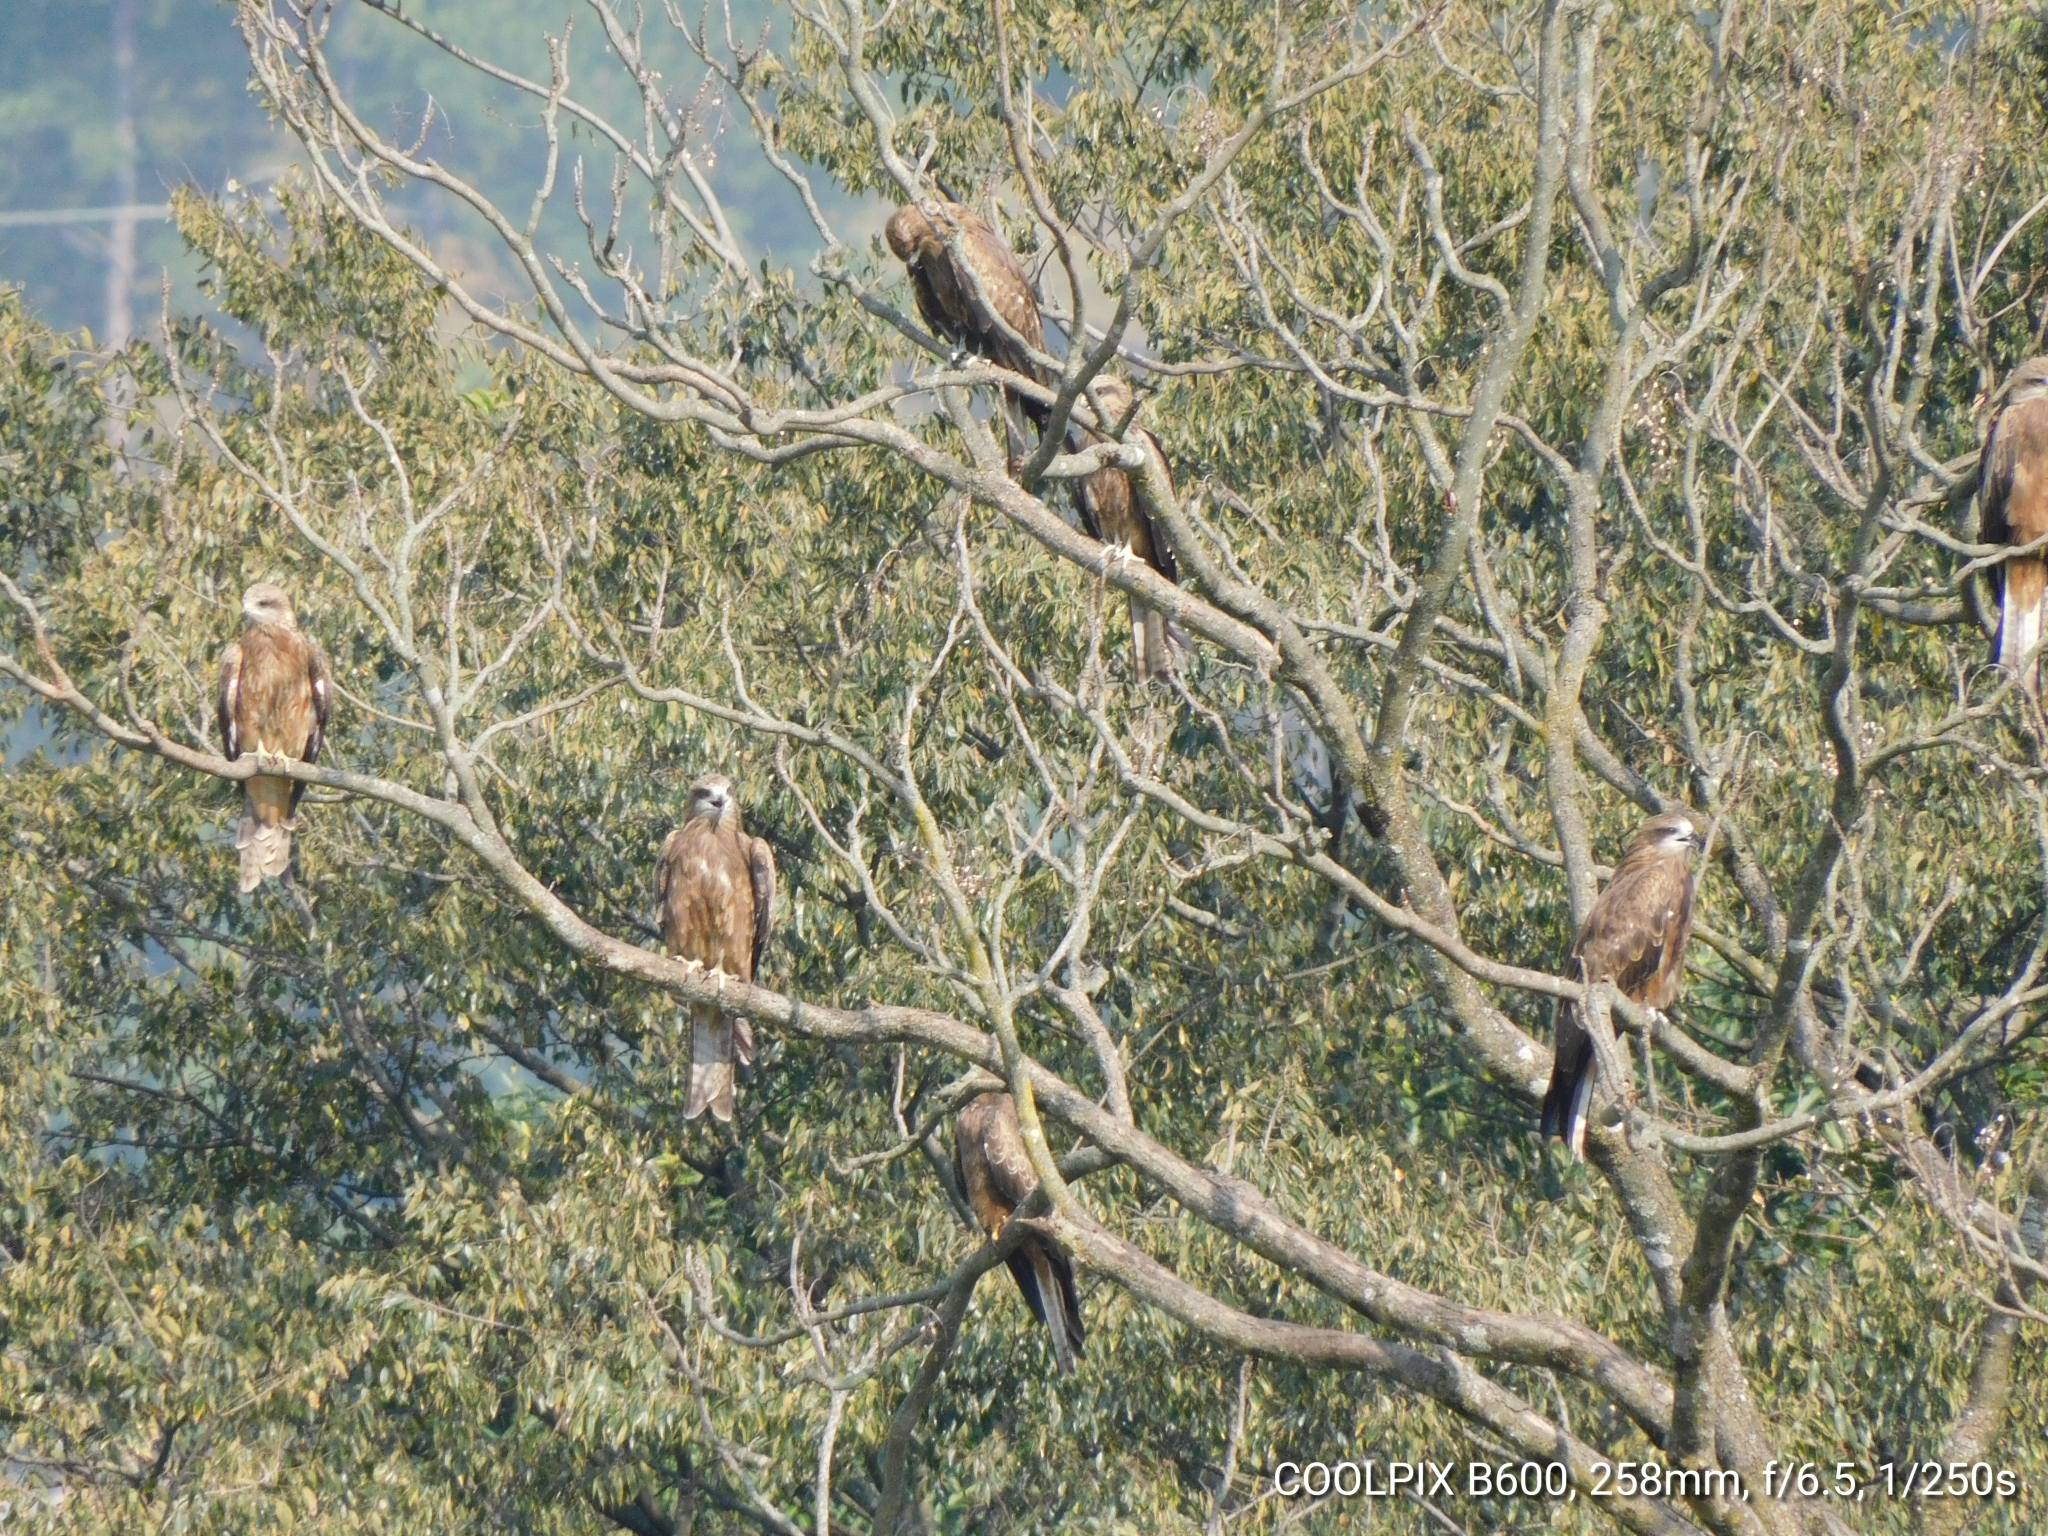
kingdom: Animalia
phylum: Chordata
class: Aves
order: Accipitriformes
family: Accipitridae
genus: Milvus
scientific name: Milvus migrans
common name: Black kite
